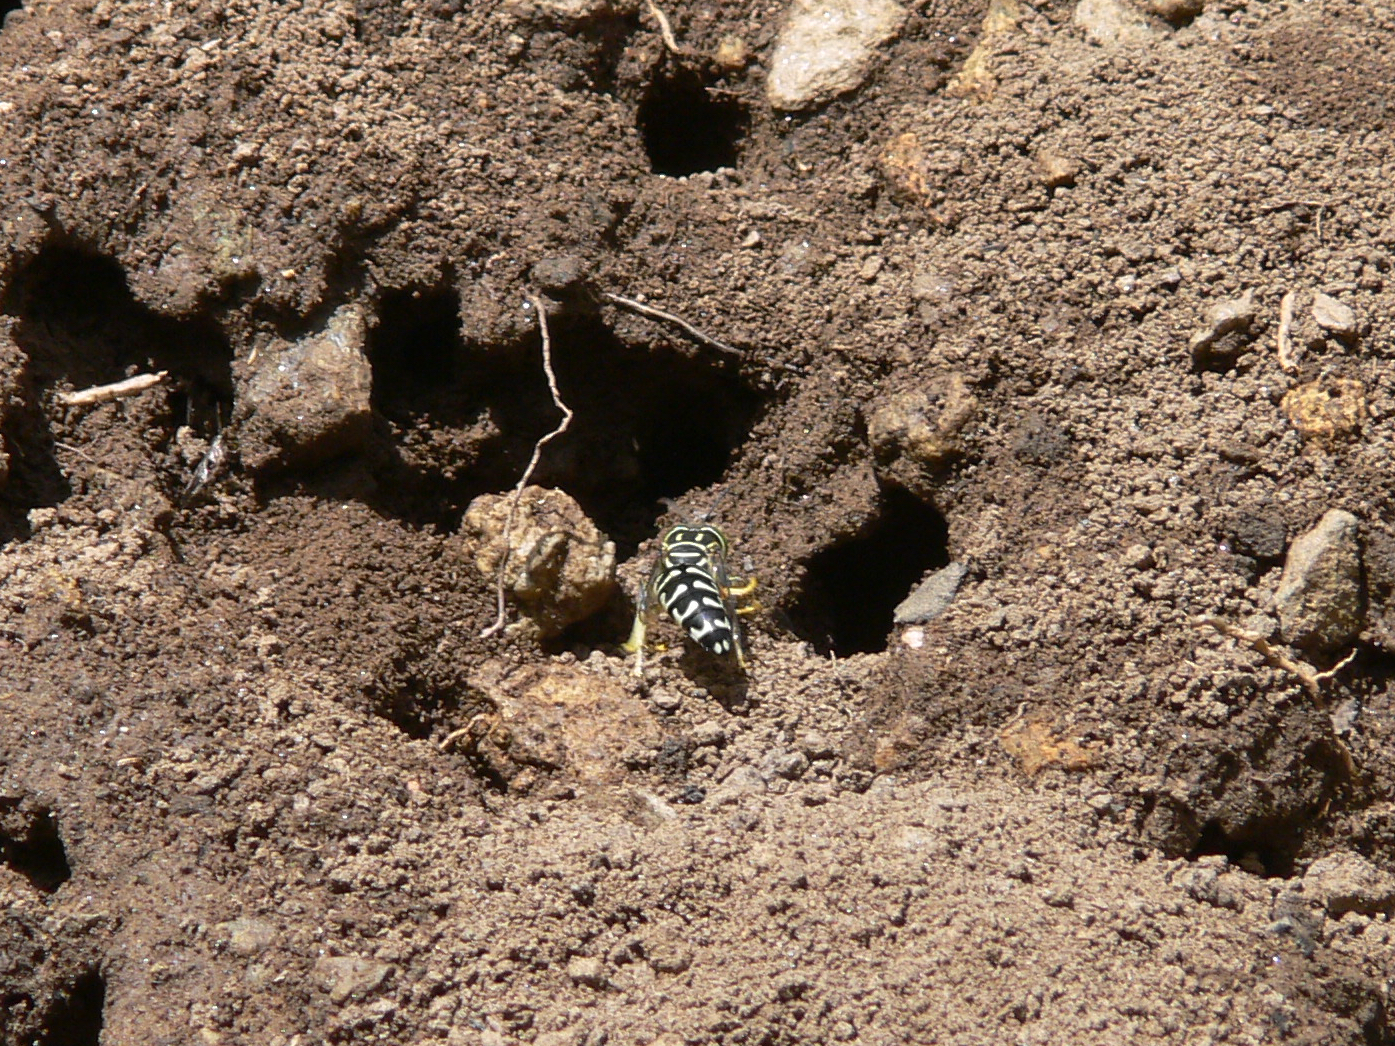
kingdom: Animalia
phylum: Arthropoda
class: Insecta
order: Hymenoptera
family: Crabronidae
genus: Stictia
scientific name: Stictia signata
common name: Sand wasp
